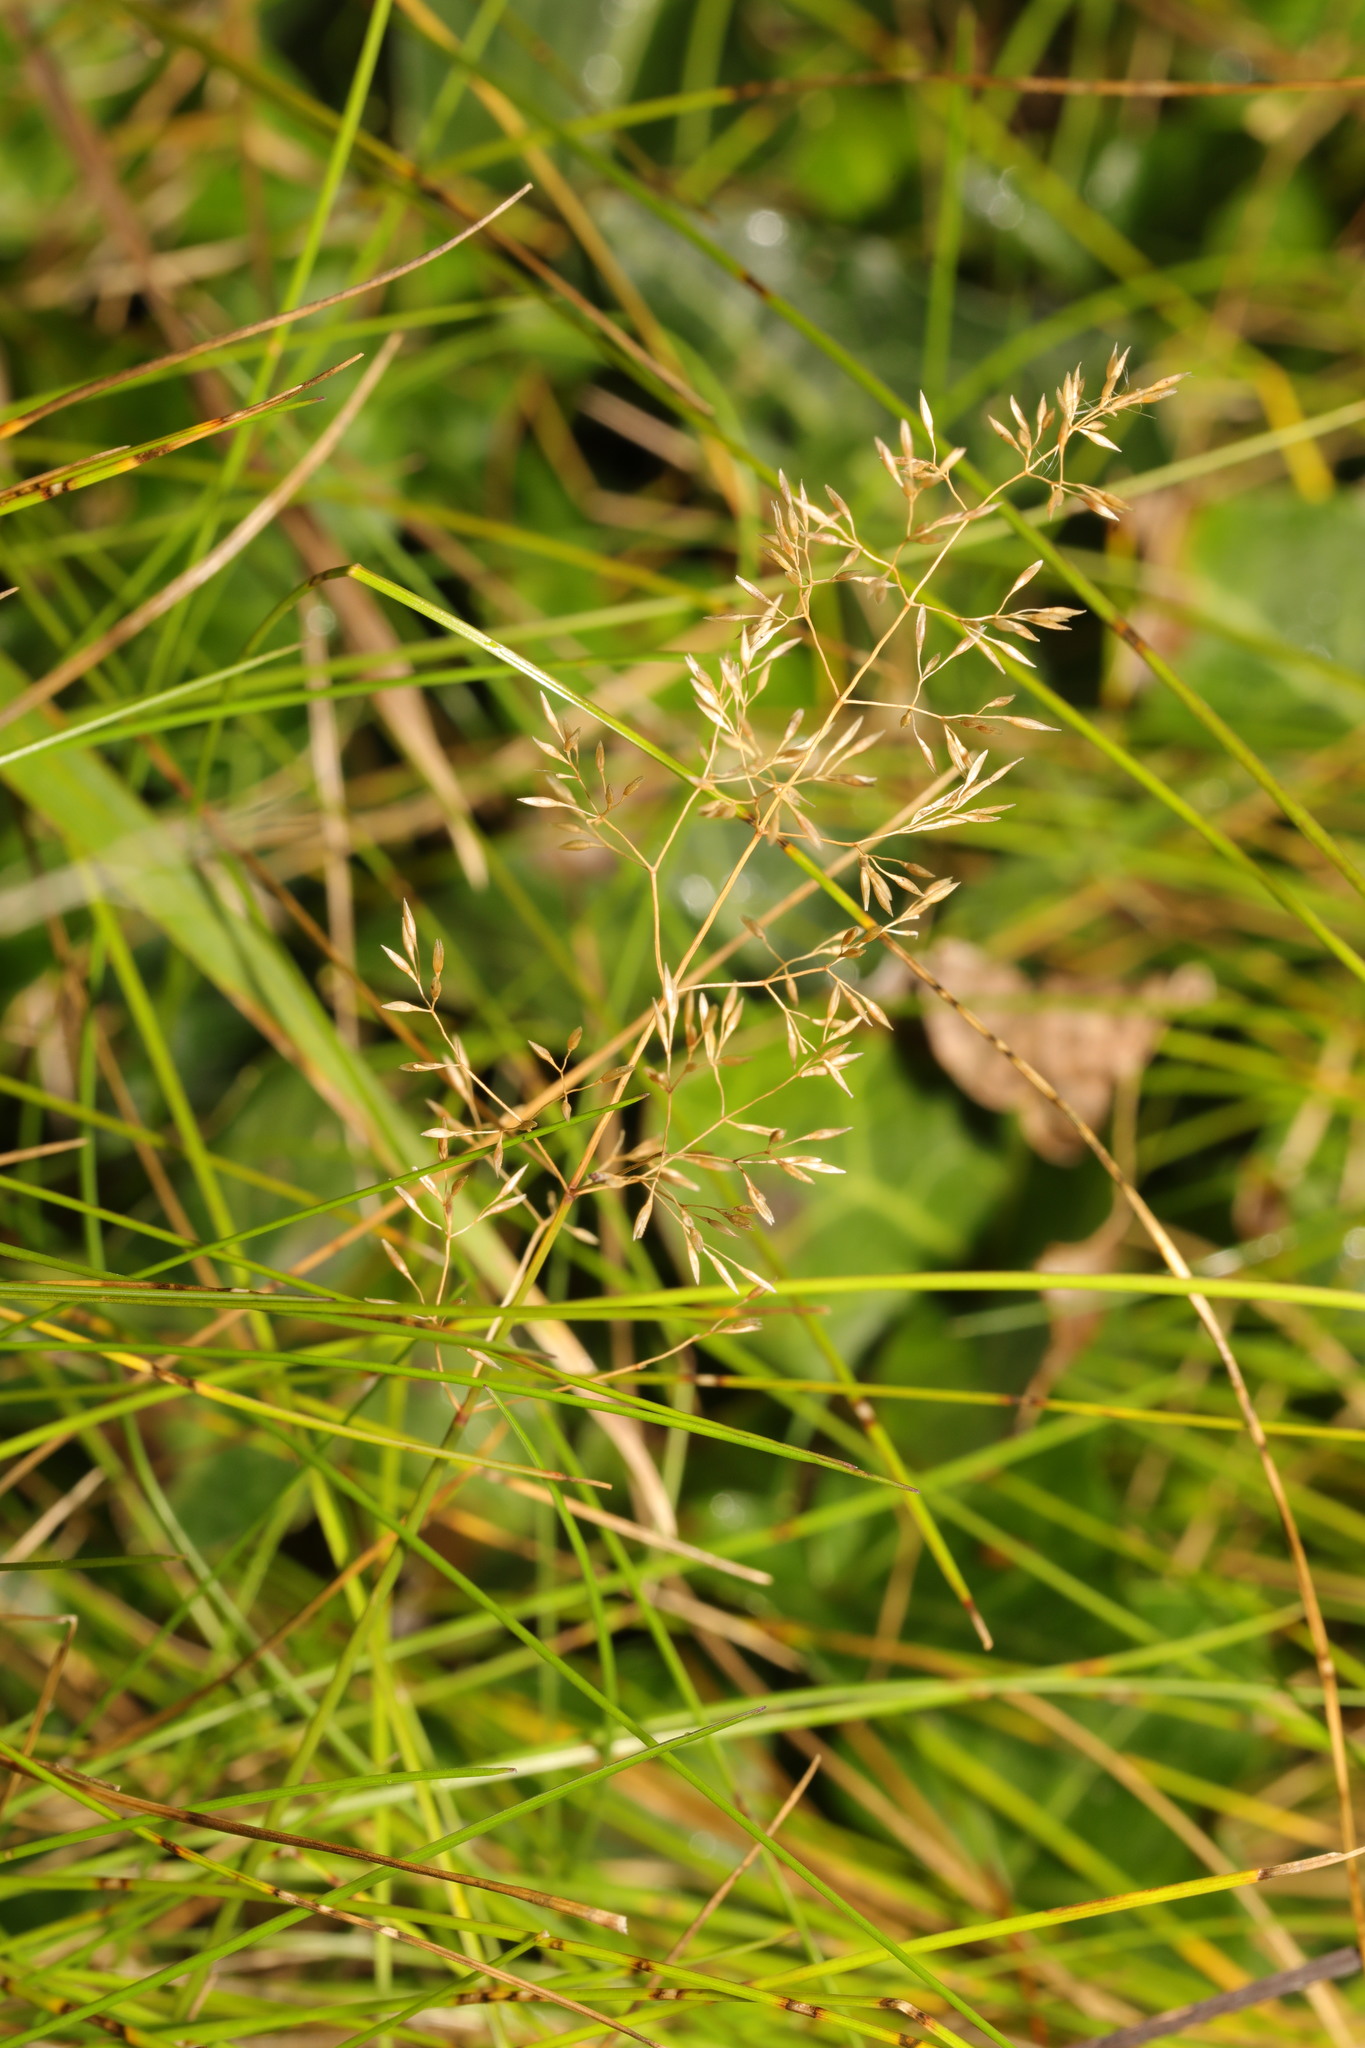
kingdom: Plantae
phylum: Tracheophyta
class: Liliopsida
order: Poales
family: Poaceae
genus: Agrostis
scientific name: Agrostis capillaris
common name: Colonial bentgrass
